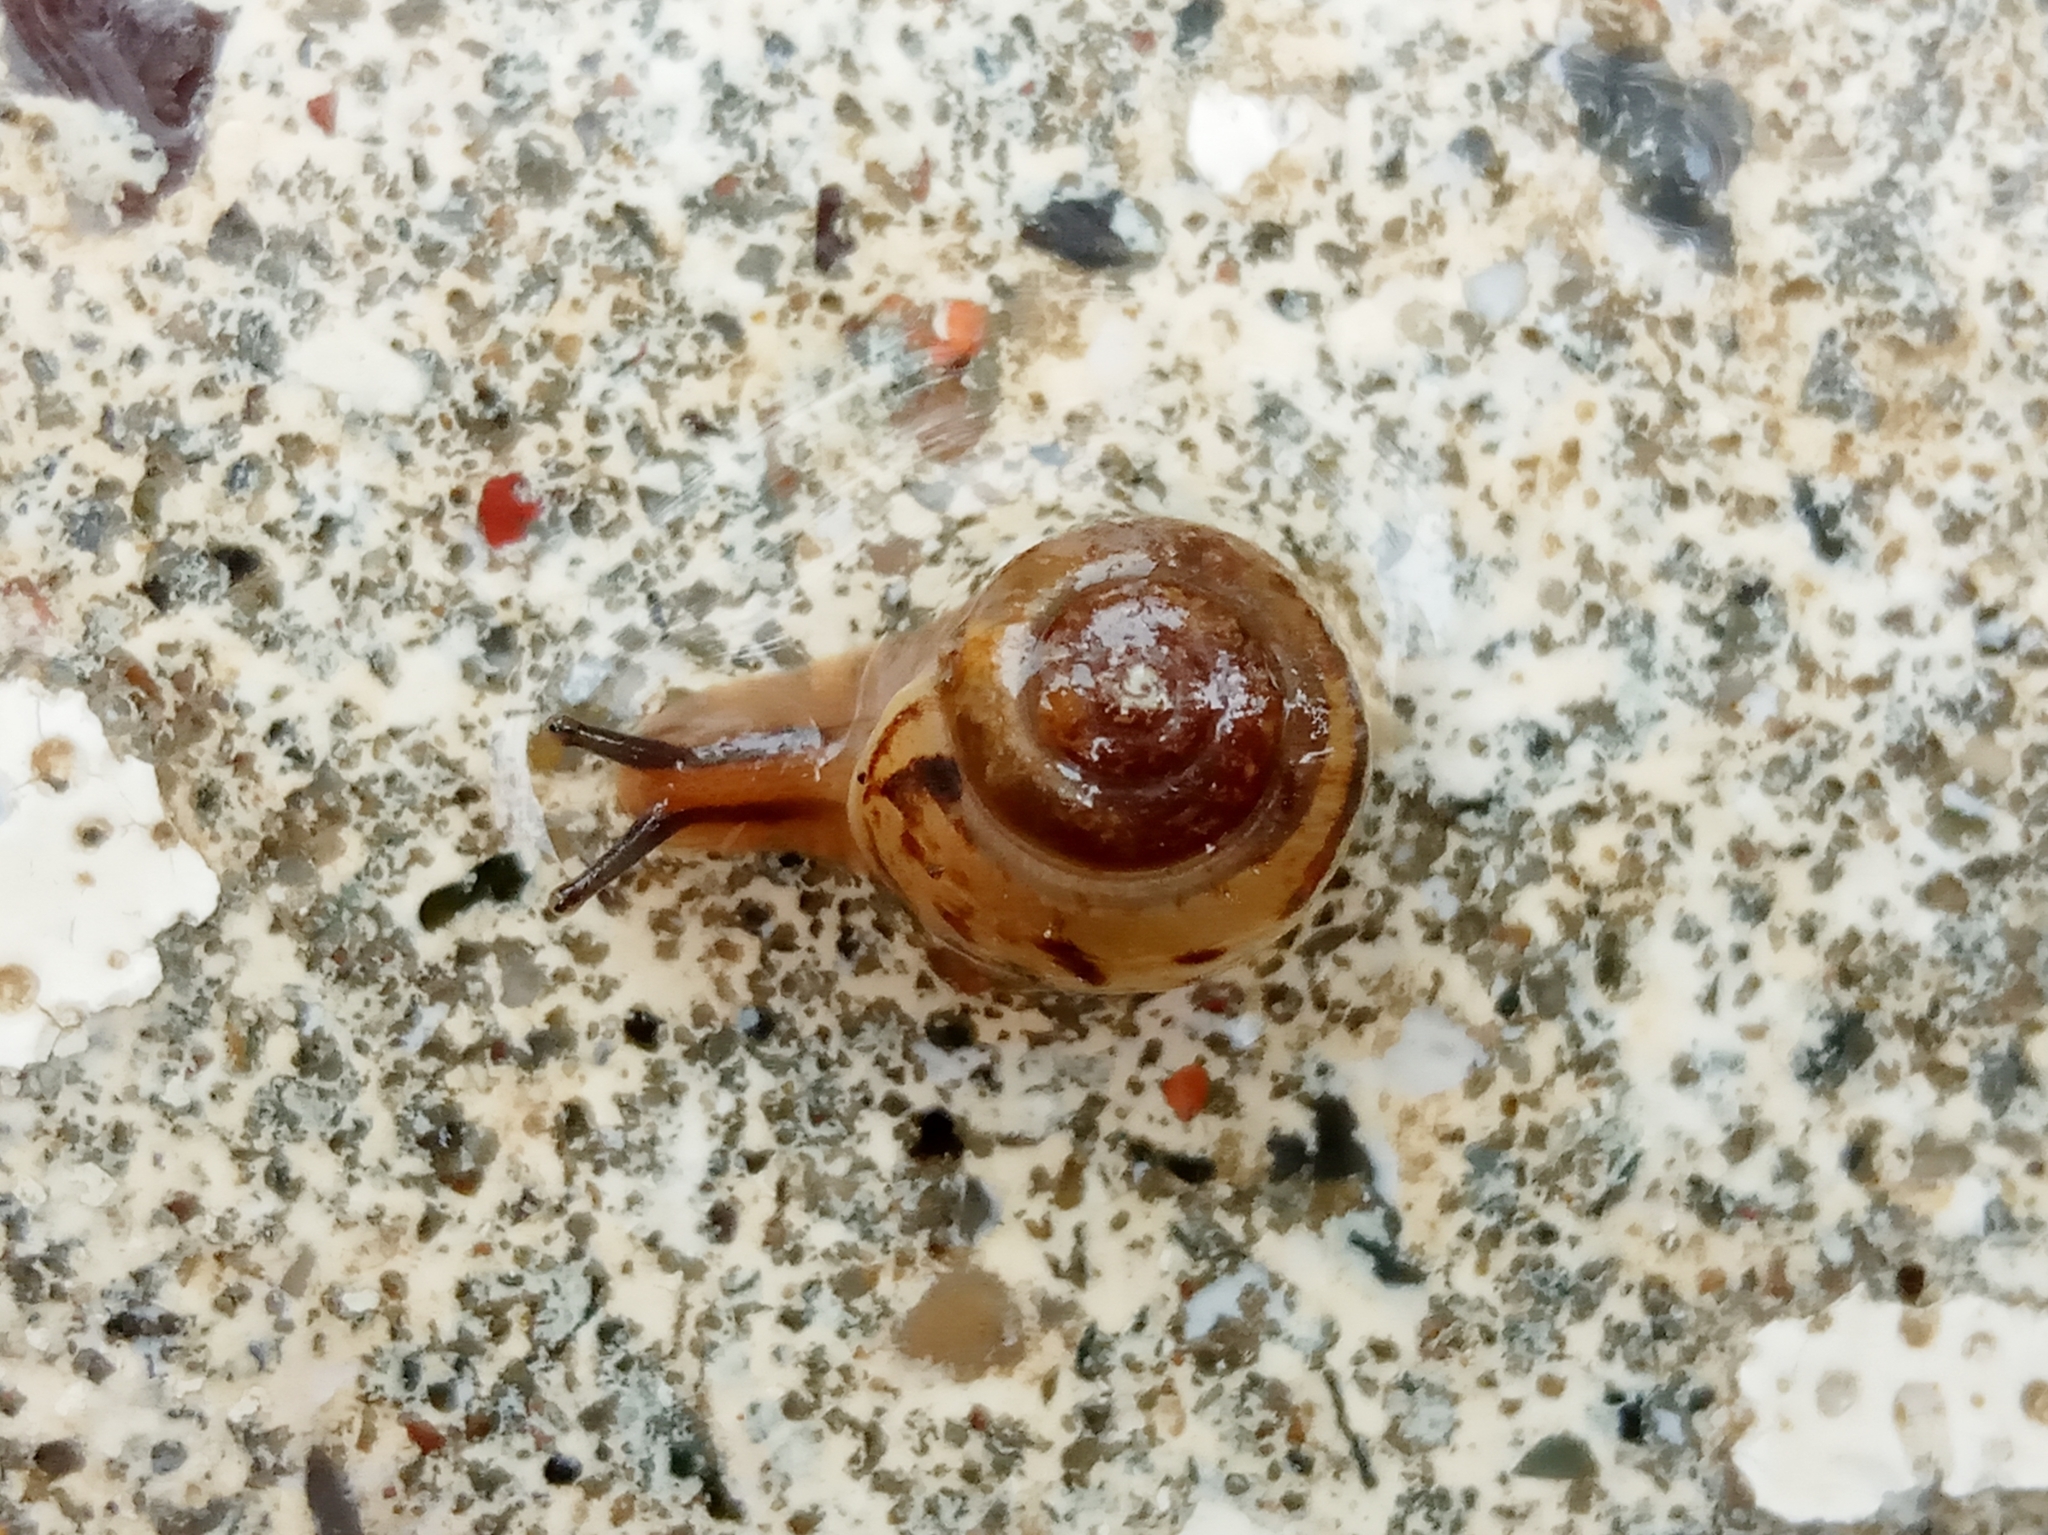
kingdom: Animalia
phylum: Mollusca
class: Gastropoda
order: Stylommatophora
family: Hygromiidae
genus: Stenomphalia
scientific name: Stenomphalia selecta
